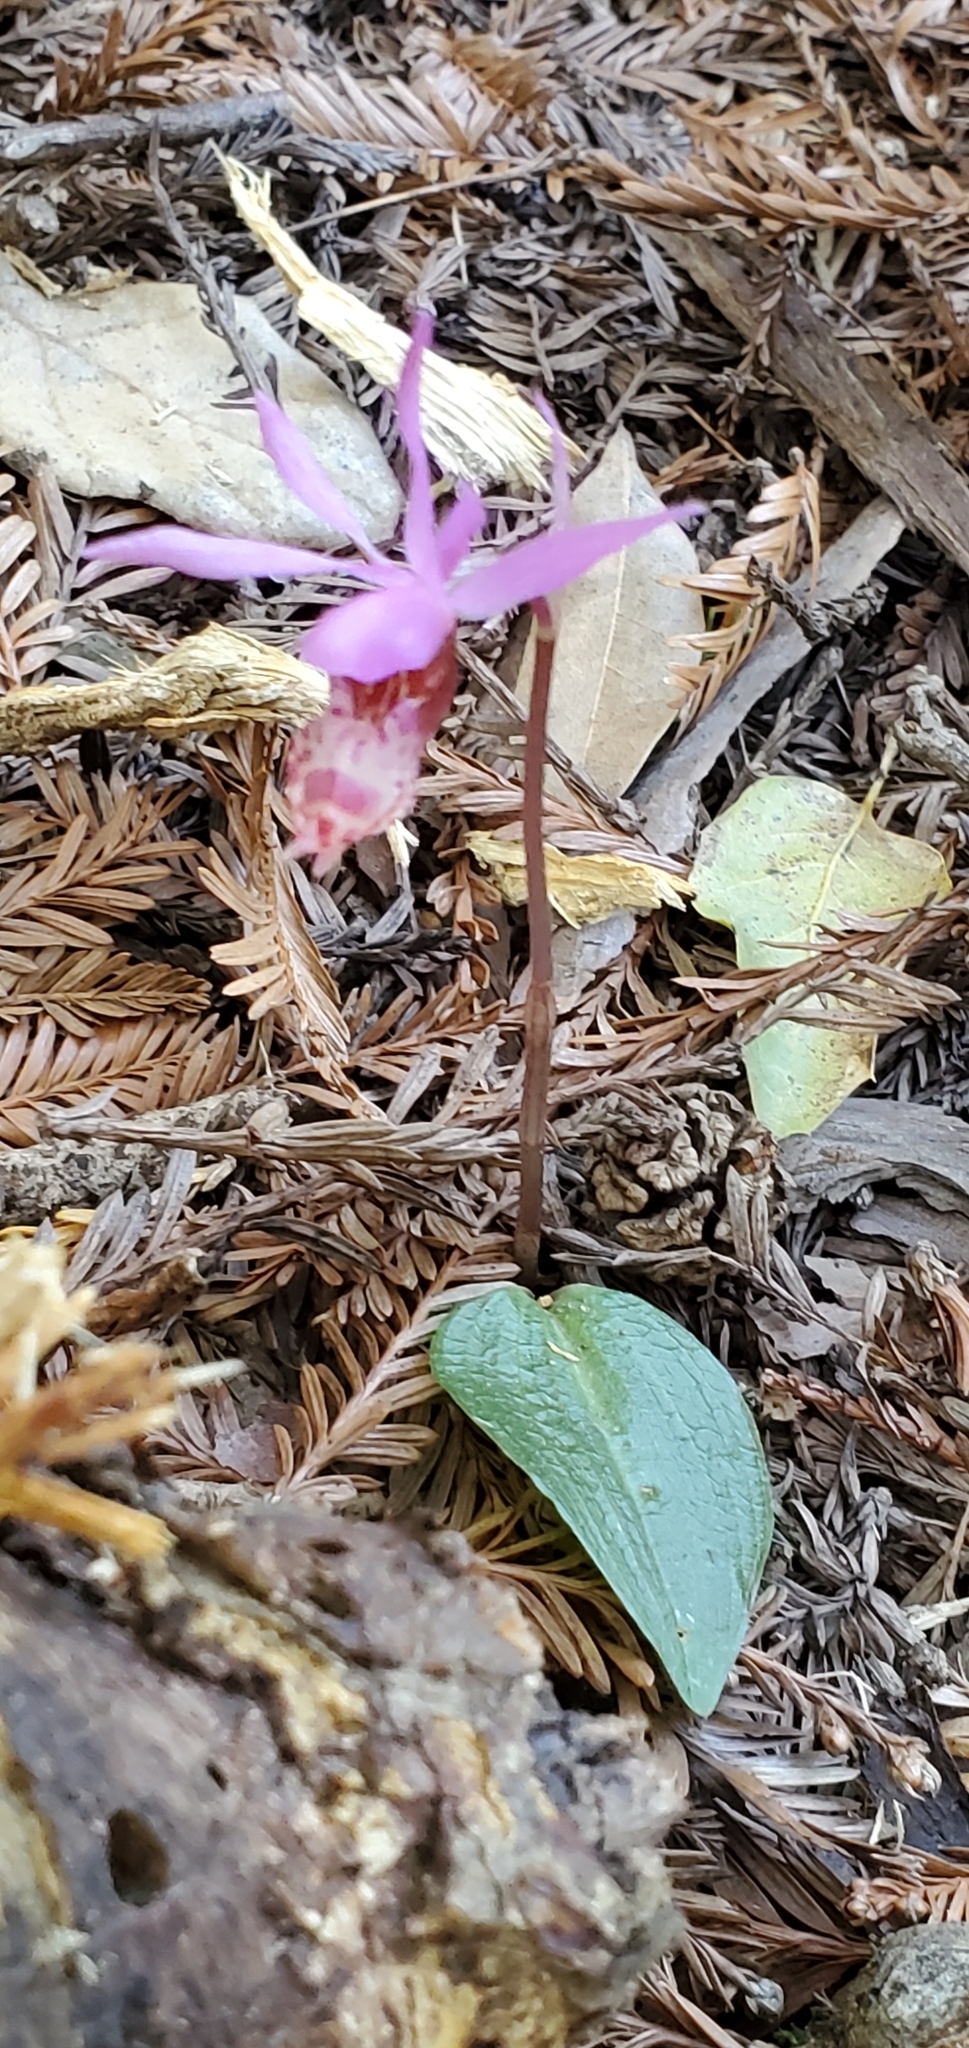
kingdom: Plantae
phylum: Tracheophyta
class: Liliopsida
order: Asparagales
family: Orchidaceae
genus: Calypso
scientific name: Calypso bulbosa
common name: Calypso
